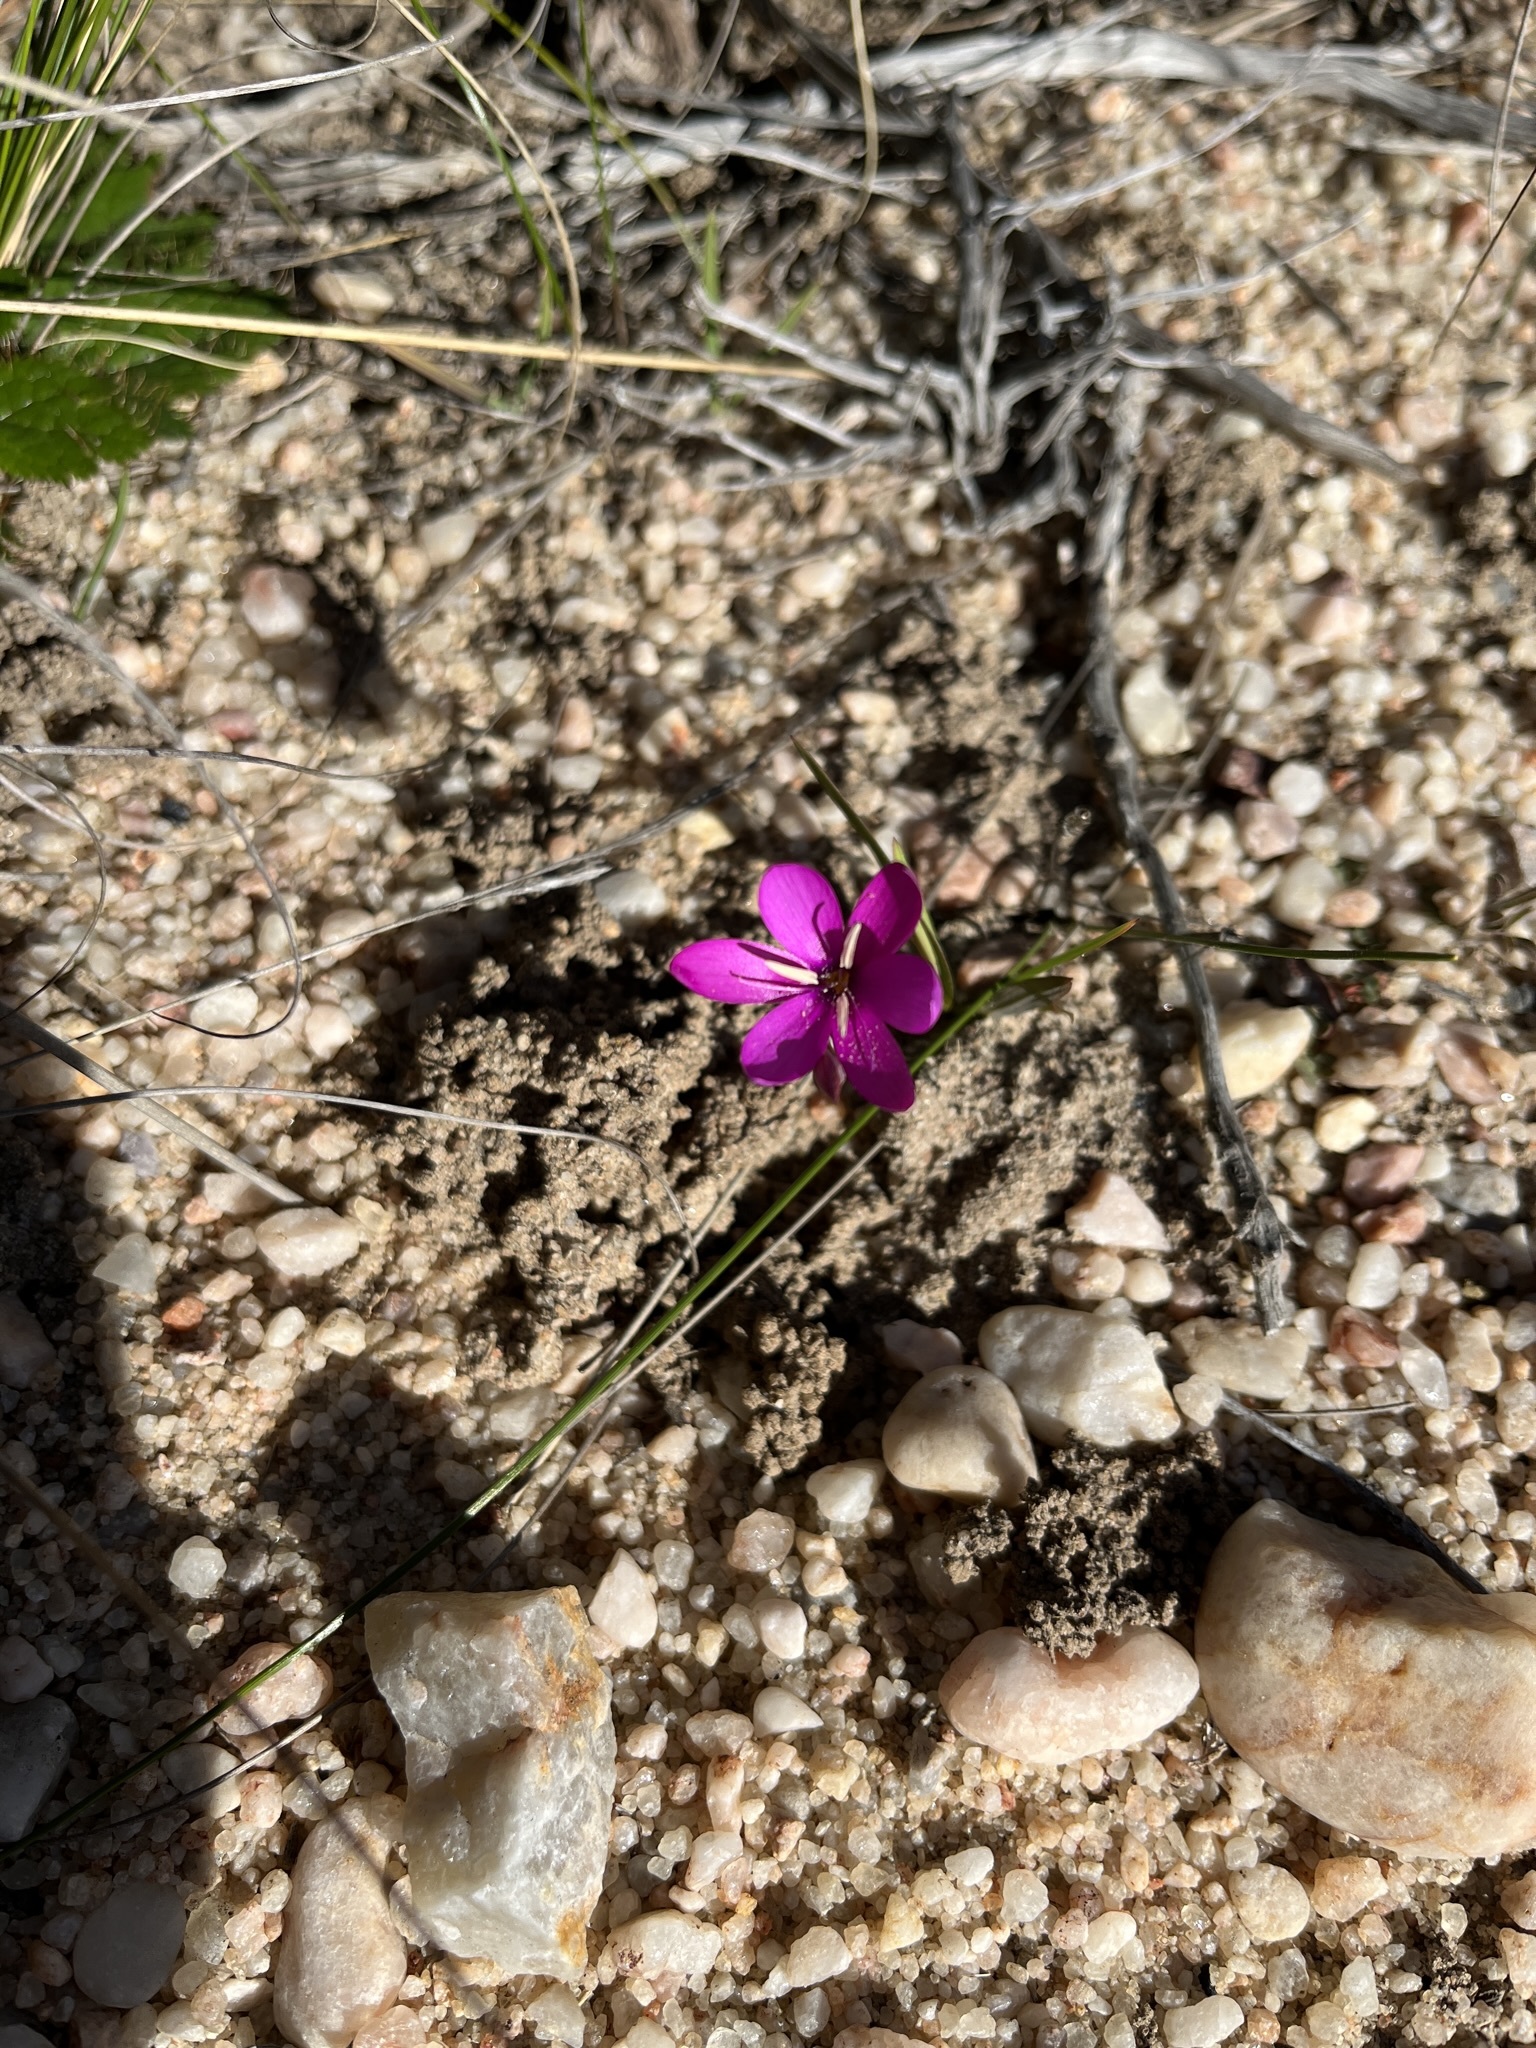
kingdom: Plantae
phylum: Tracheophyta
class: Liliopsida
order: Asparagales
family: Iridaceae
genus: Hesperantha
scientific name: Hesperantha pauciflora
